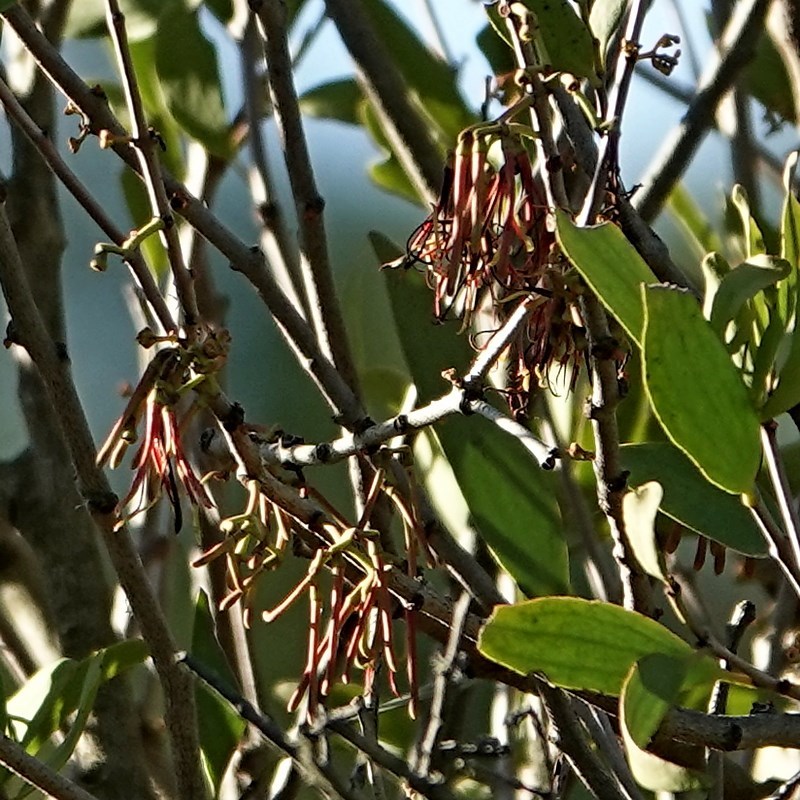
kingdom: Plantae
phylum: Tracheophyta
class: Magnoliopsida
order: Santalales
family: Loranthaceae
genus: Amyema
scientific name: Amyema congener
